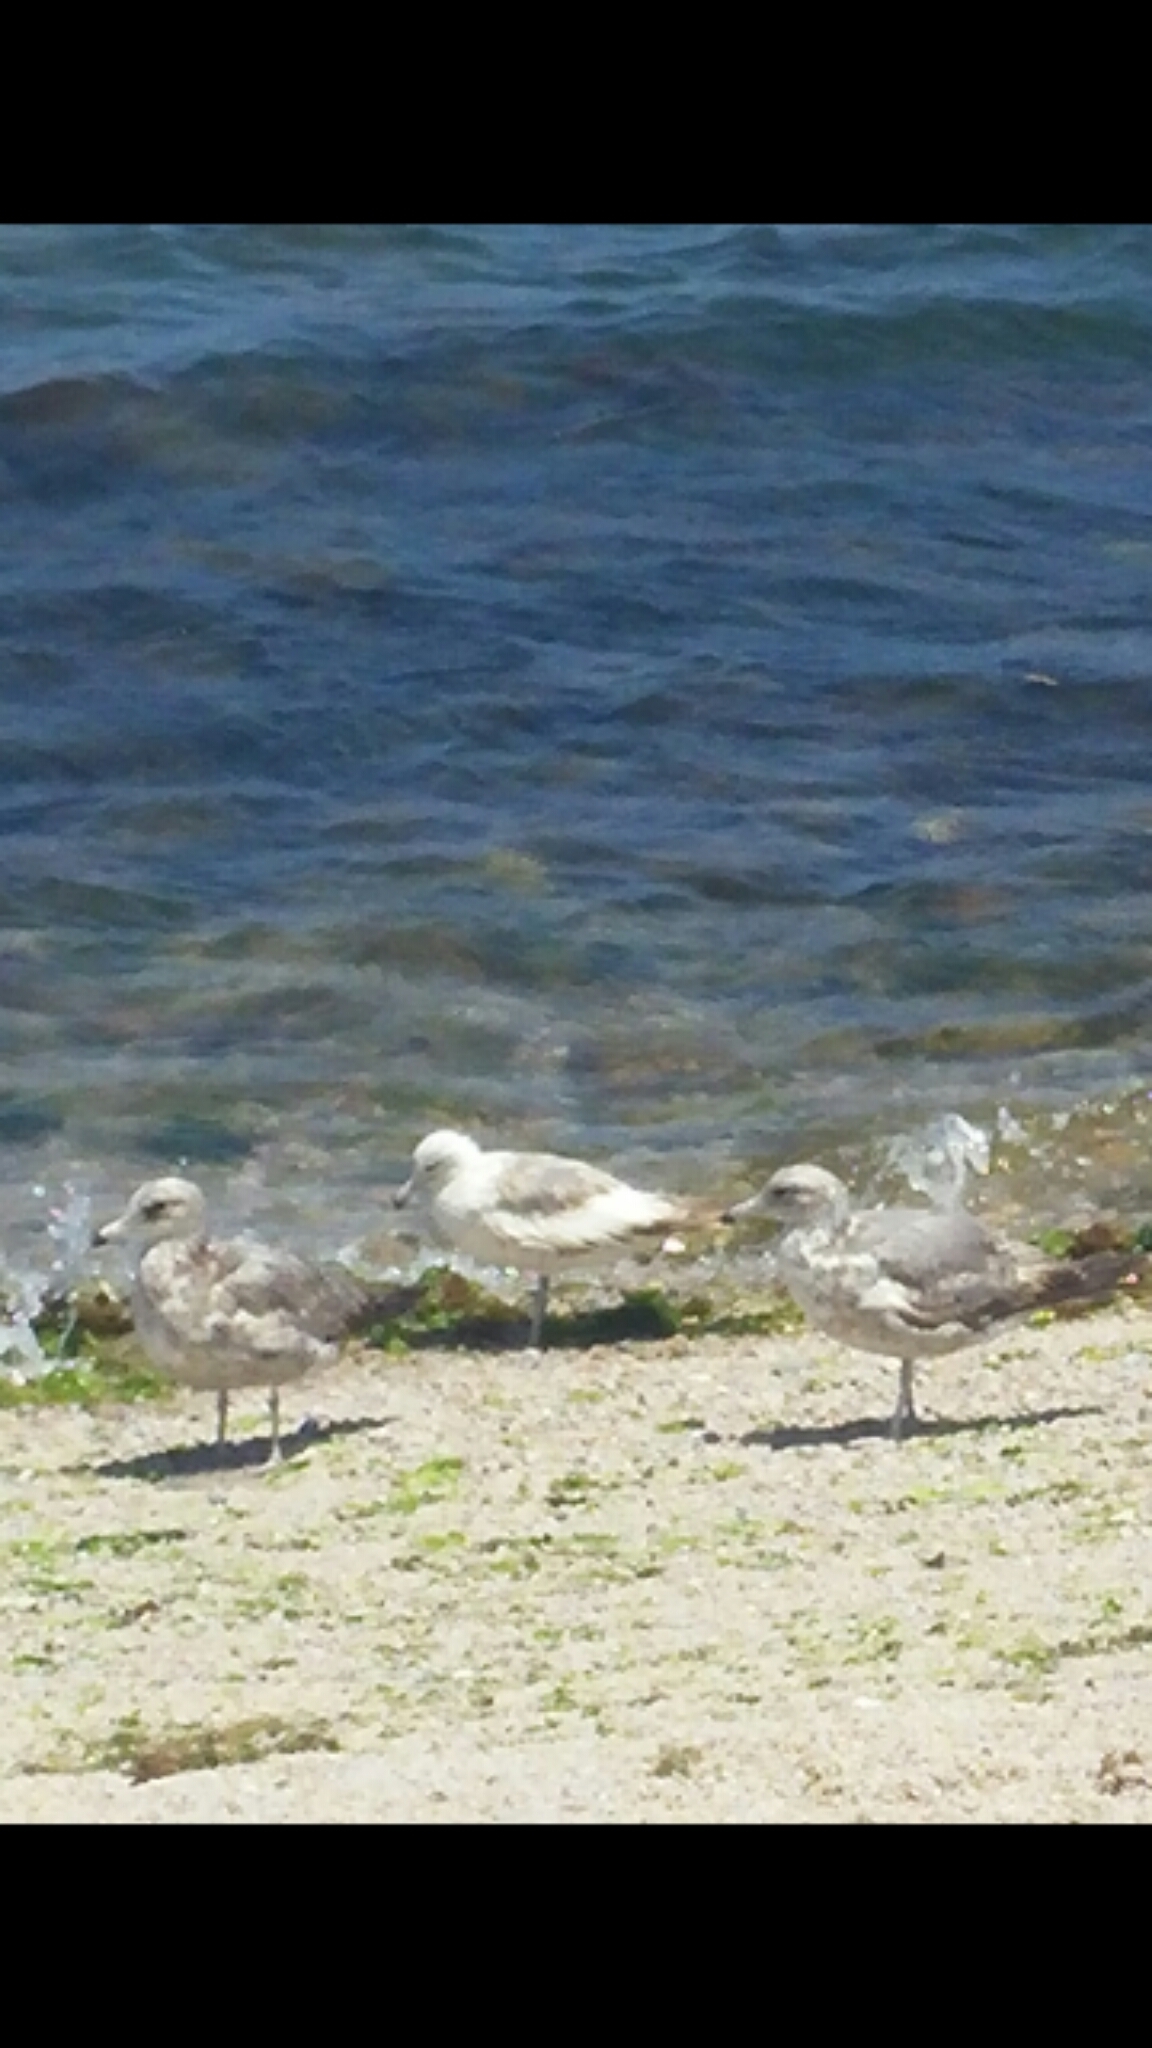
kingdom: Animalia
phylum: Chordata
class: Aves
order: Charadriiformes
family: Laridae
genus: Larus
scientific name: Larus californicus
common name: California gull
